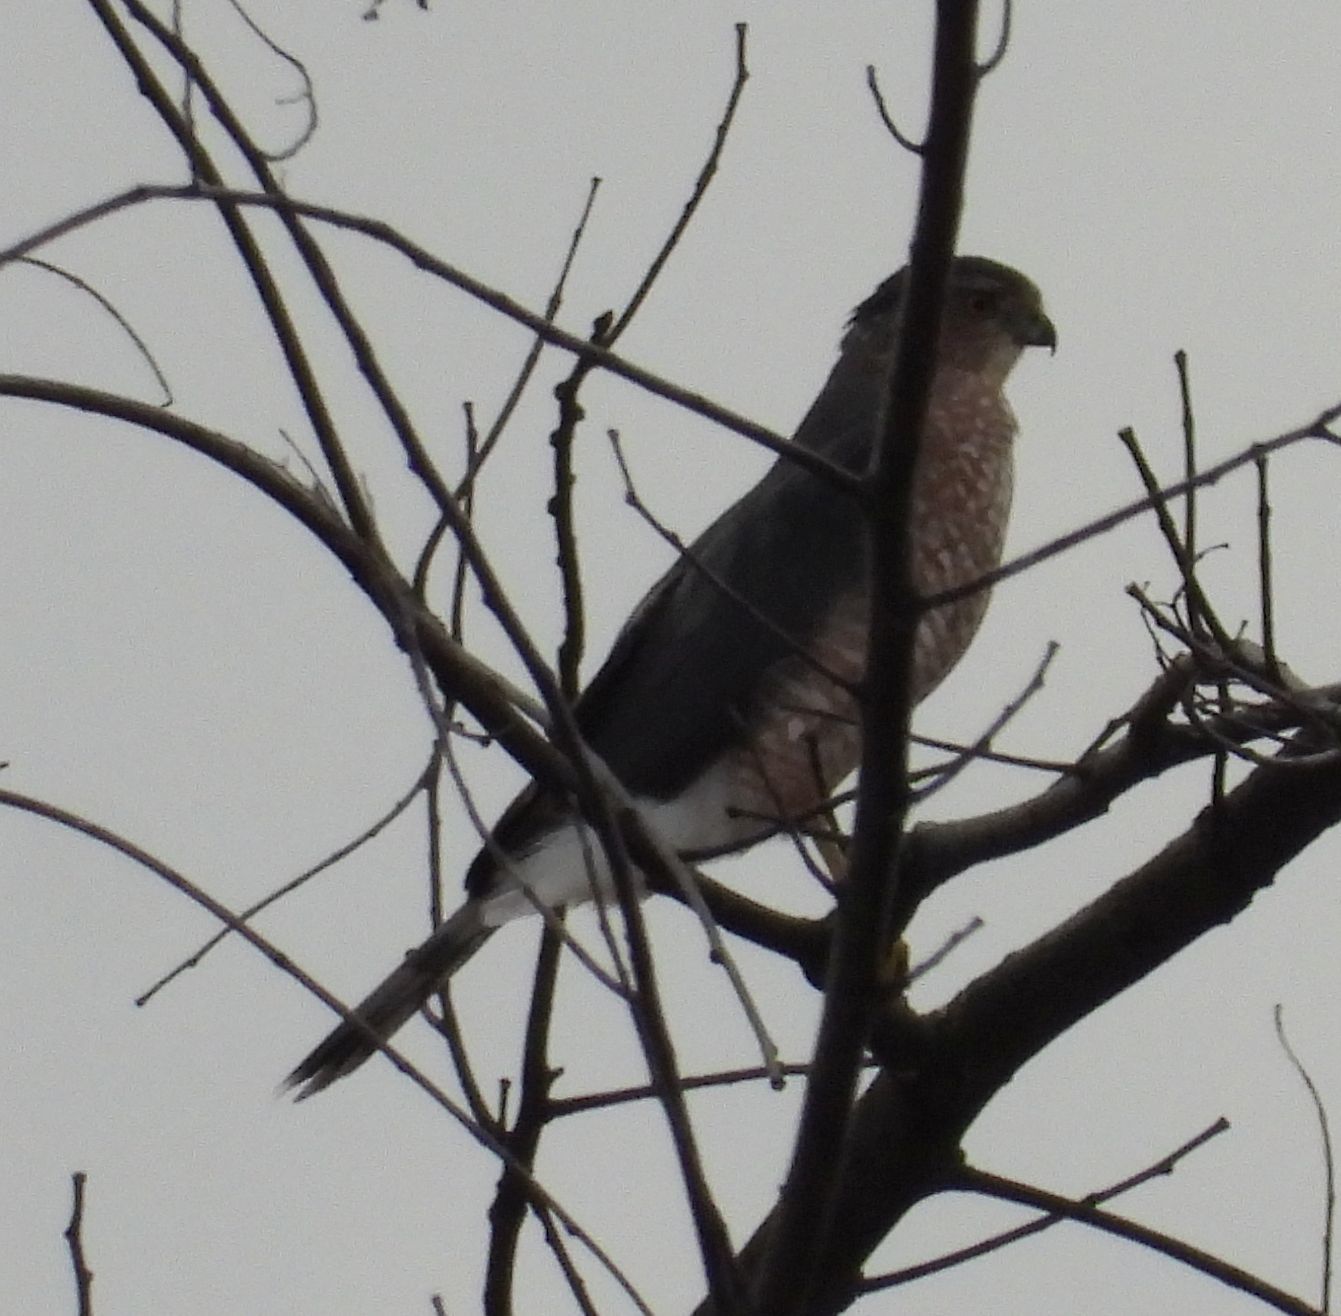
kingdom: Animalia
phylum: Chordata
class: Aves
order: Accipitriformes
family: Accipitridae
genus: Accipiter
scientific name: Accipiter cooperii
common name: Cooper's hawk
